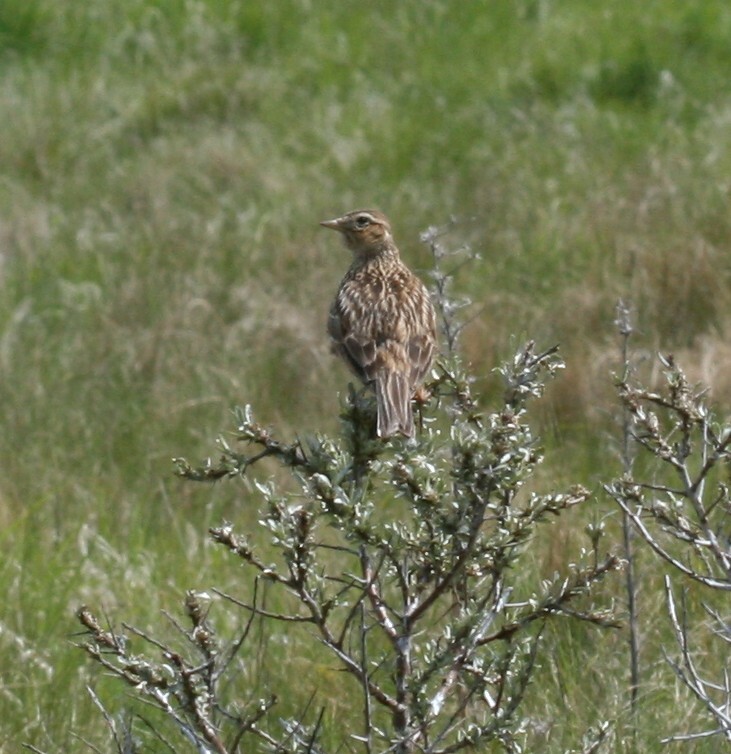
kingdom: Animalia
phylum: Chordata
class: Aves
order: Passeriformes
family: Alaudidae
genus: Alauda
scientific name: Alauda arvensis
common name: Eurasian skylark
